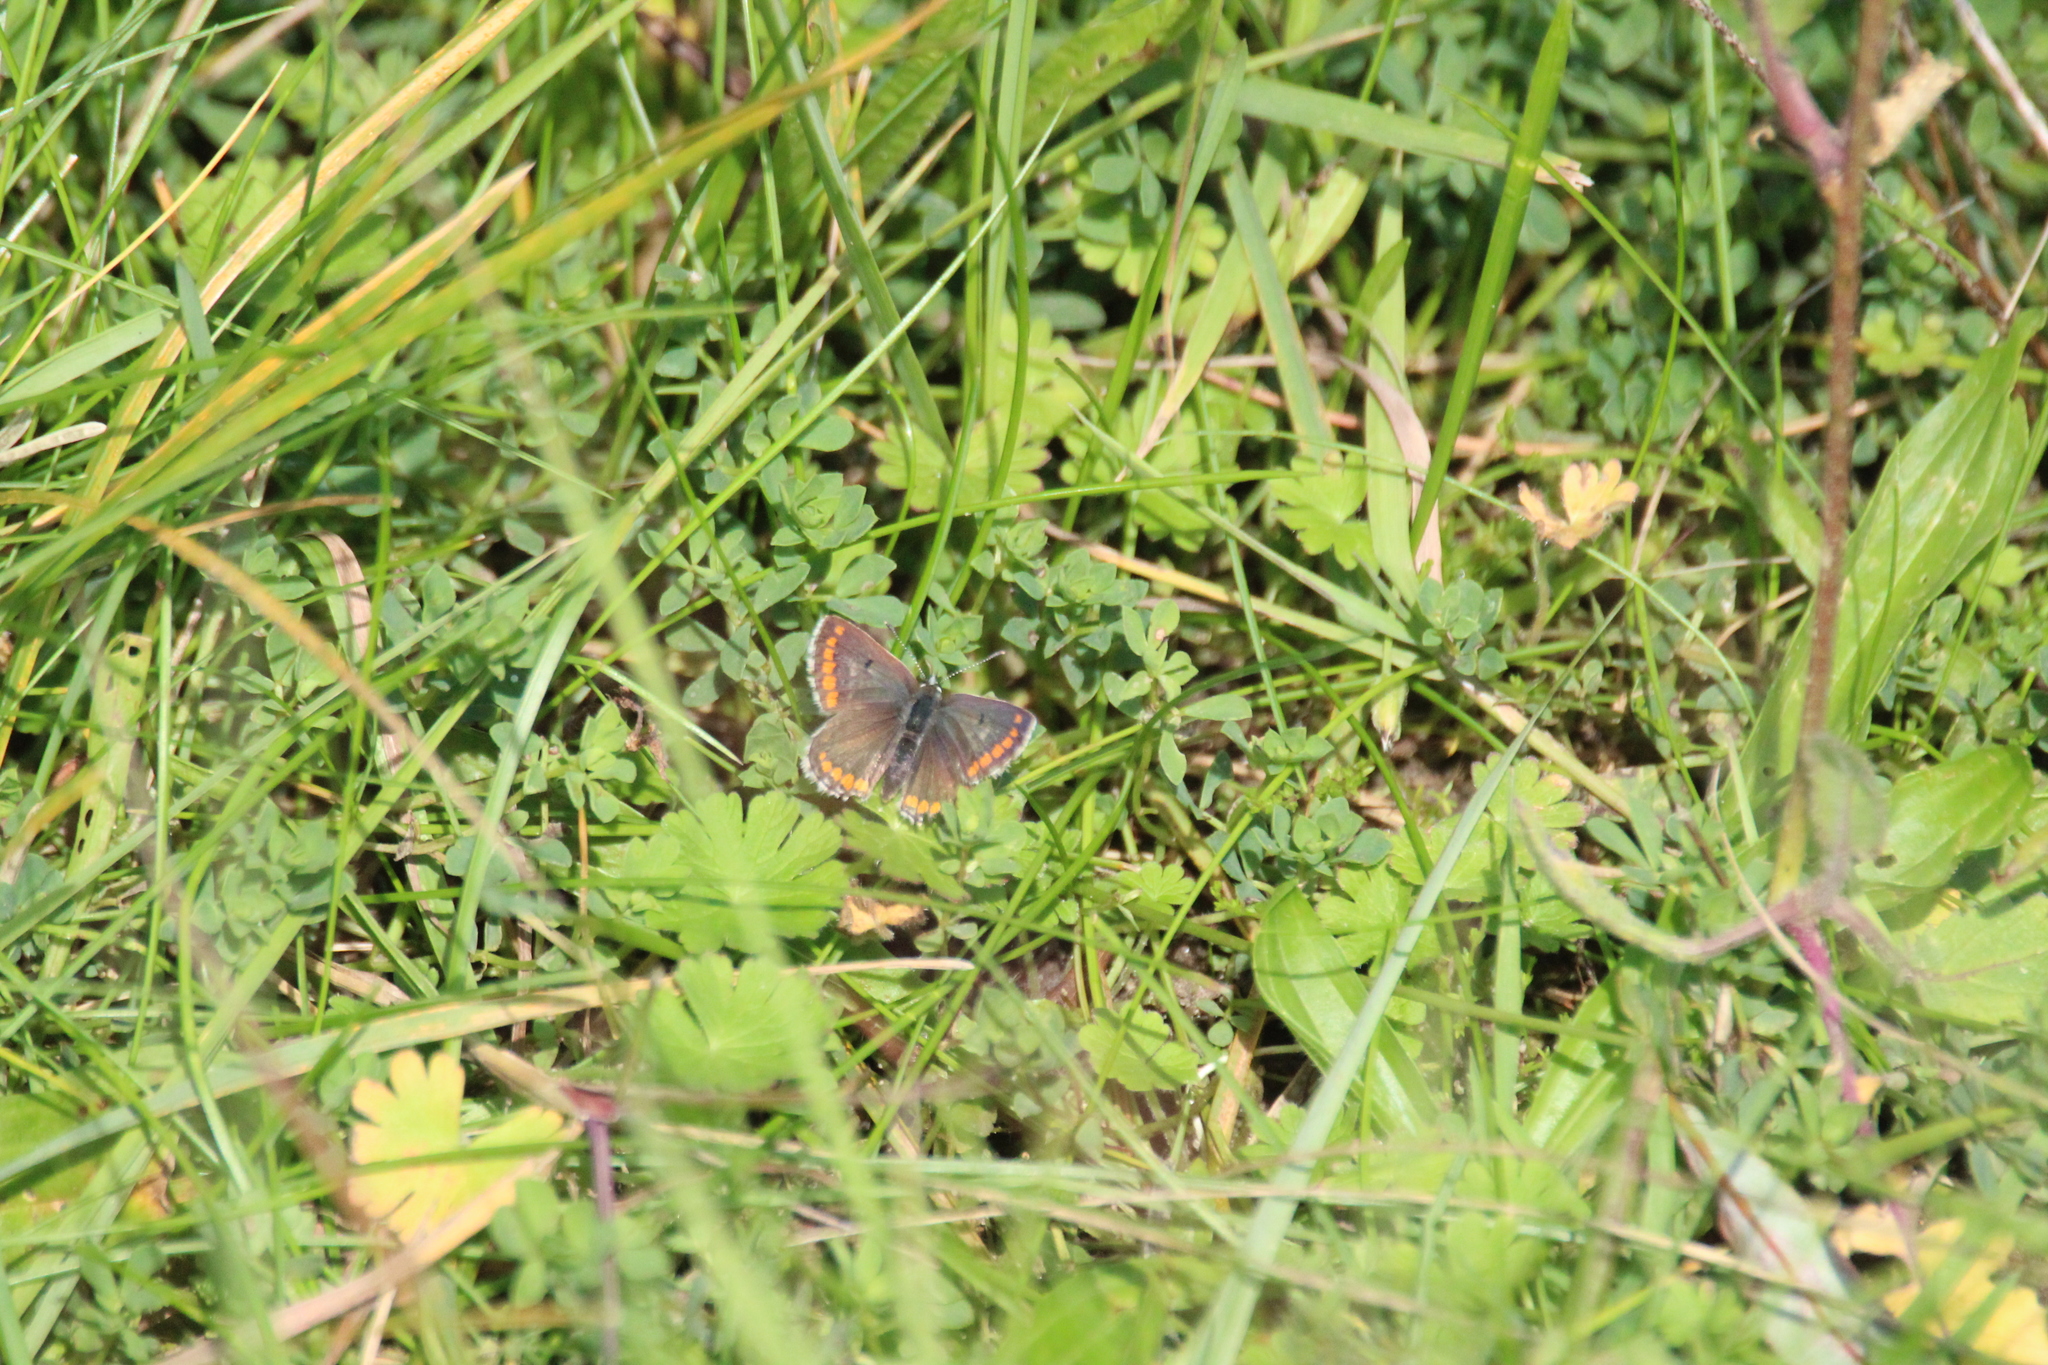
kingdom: Animalia
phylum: Arthropoda
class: Insecta
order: Lepidoptera
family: Lycaenidae
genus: Aricia
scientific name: Aricia agestis
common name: Brown argus
